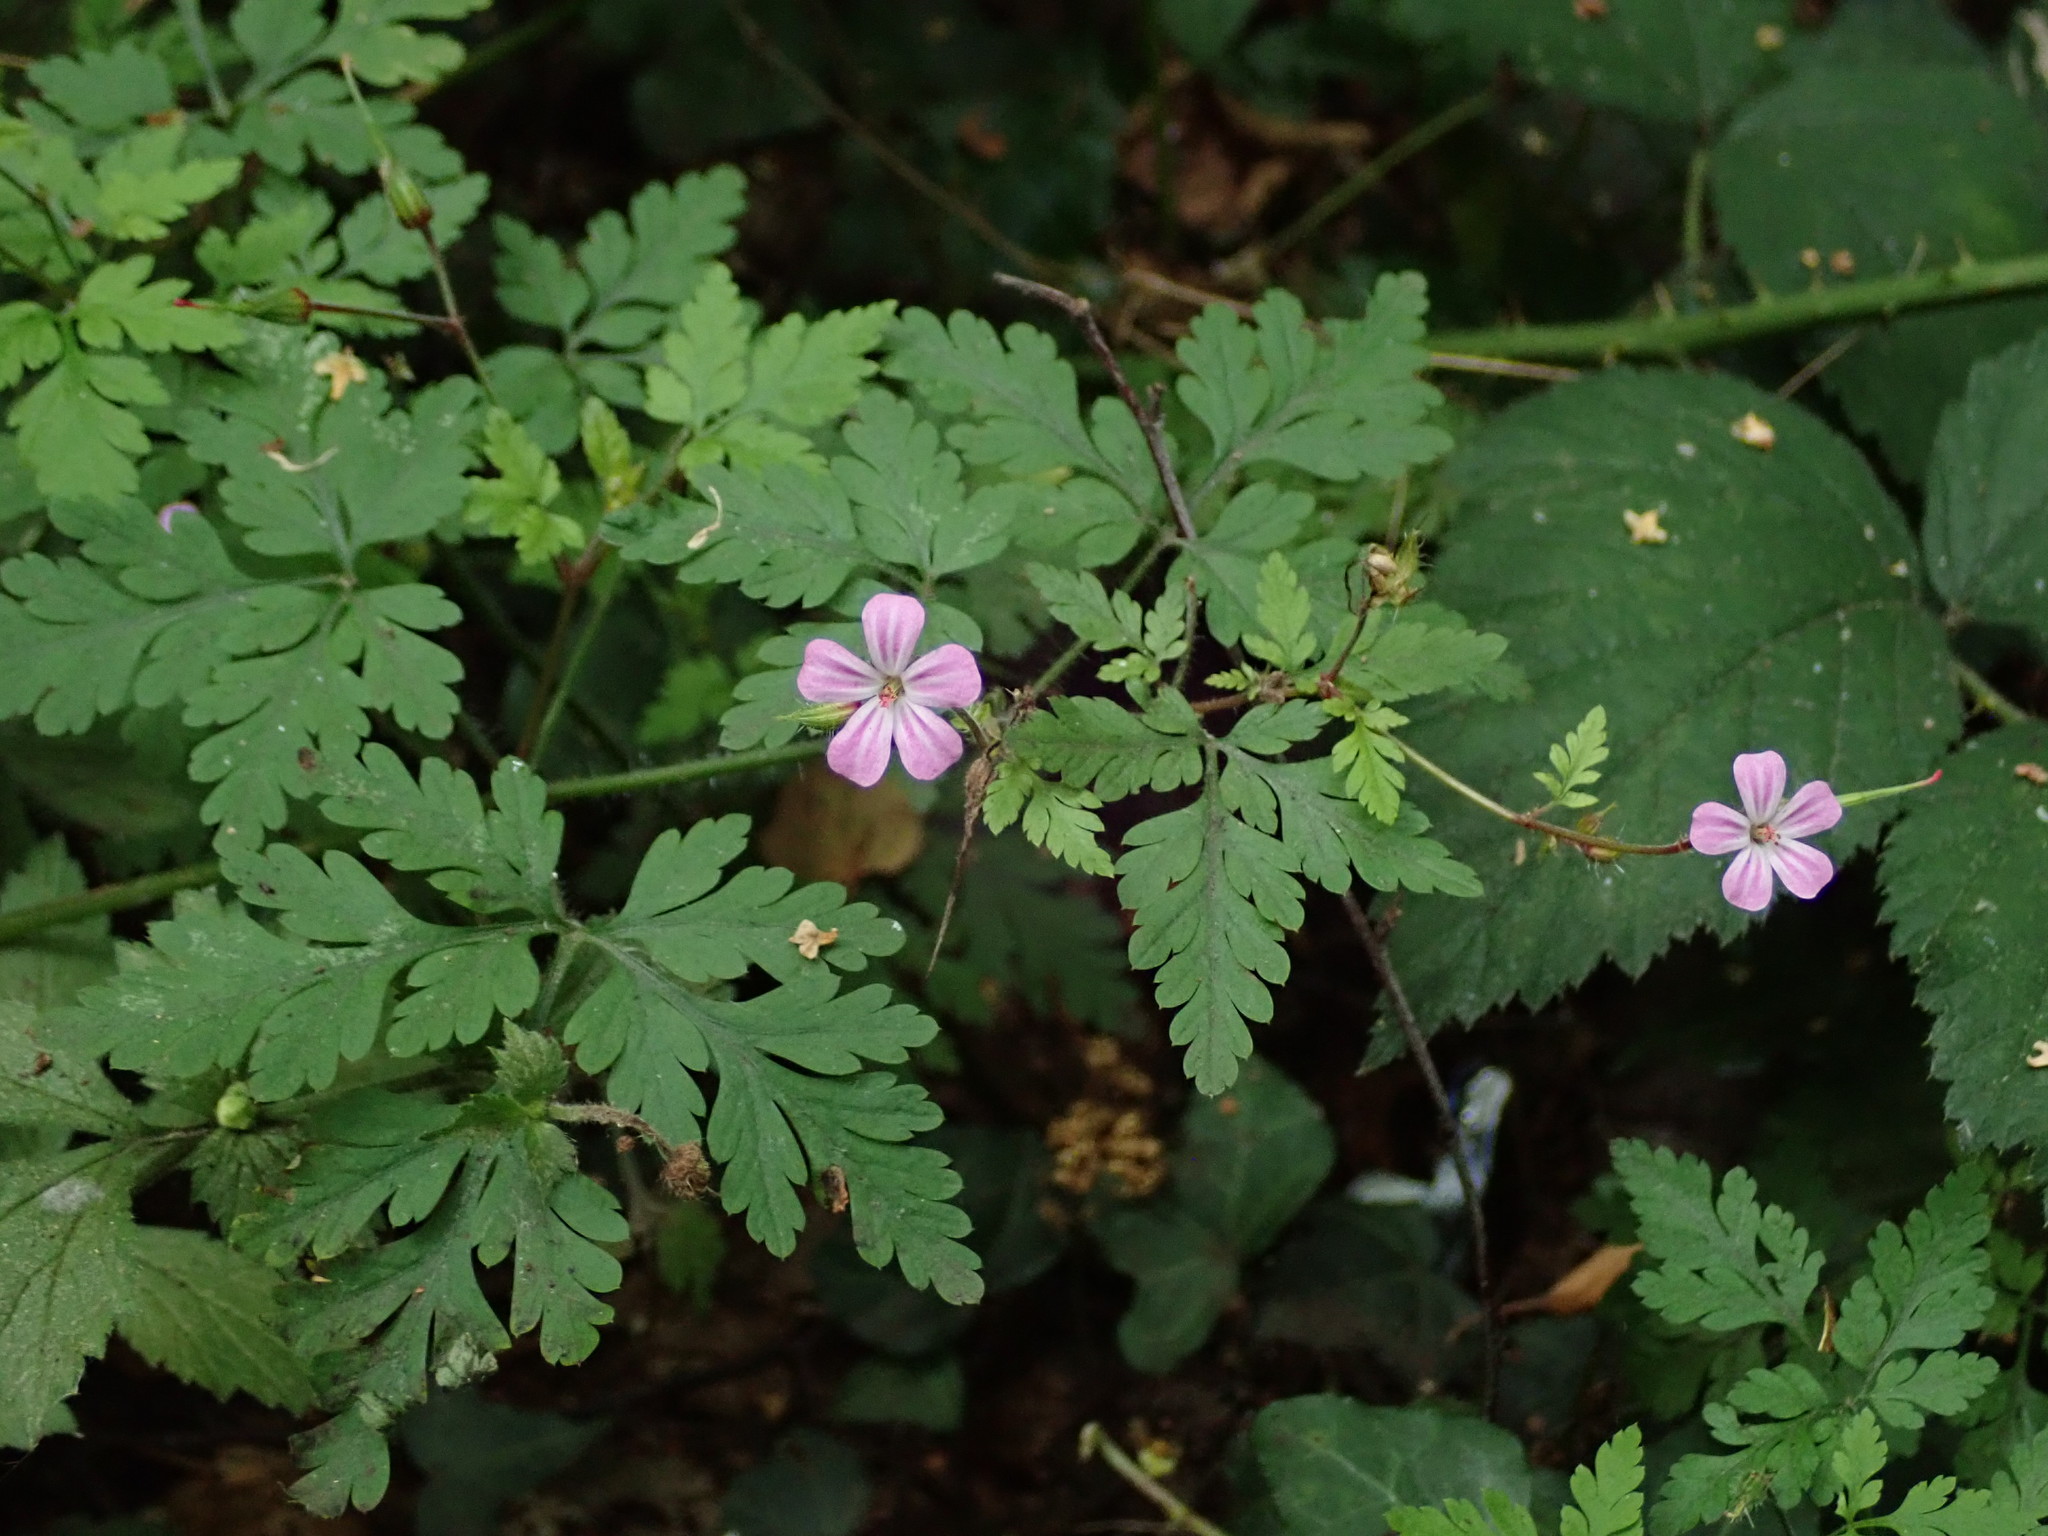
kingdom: Plantae
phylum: Tracheophyta
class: Magnoliopsida
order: Geraniales
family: Geraniaceae
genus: Geranium
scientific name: Geranium robertianum
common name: Herb-robert
